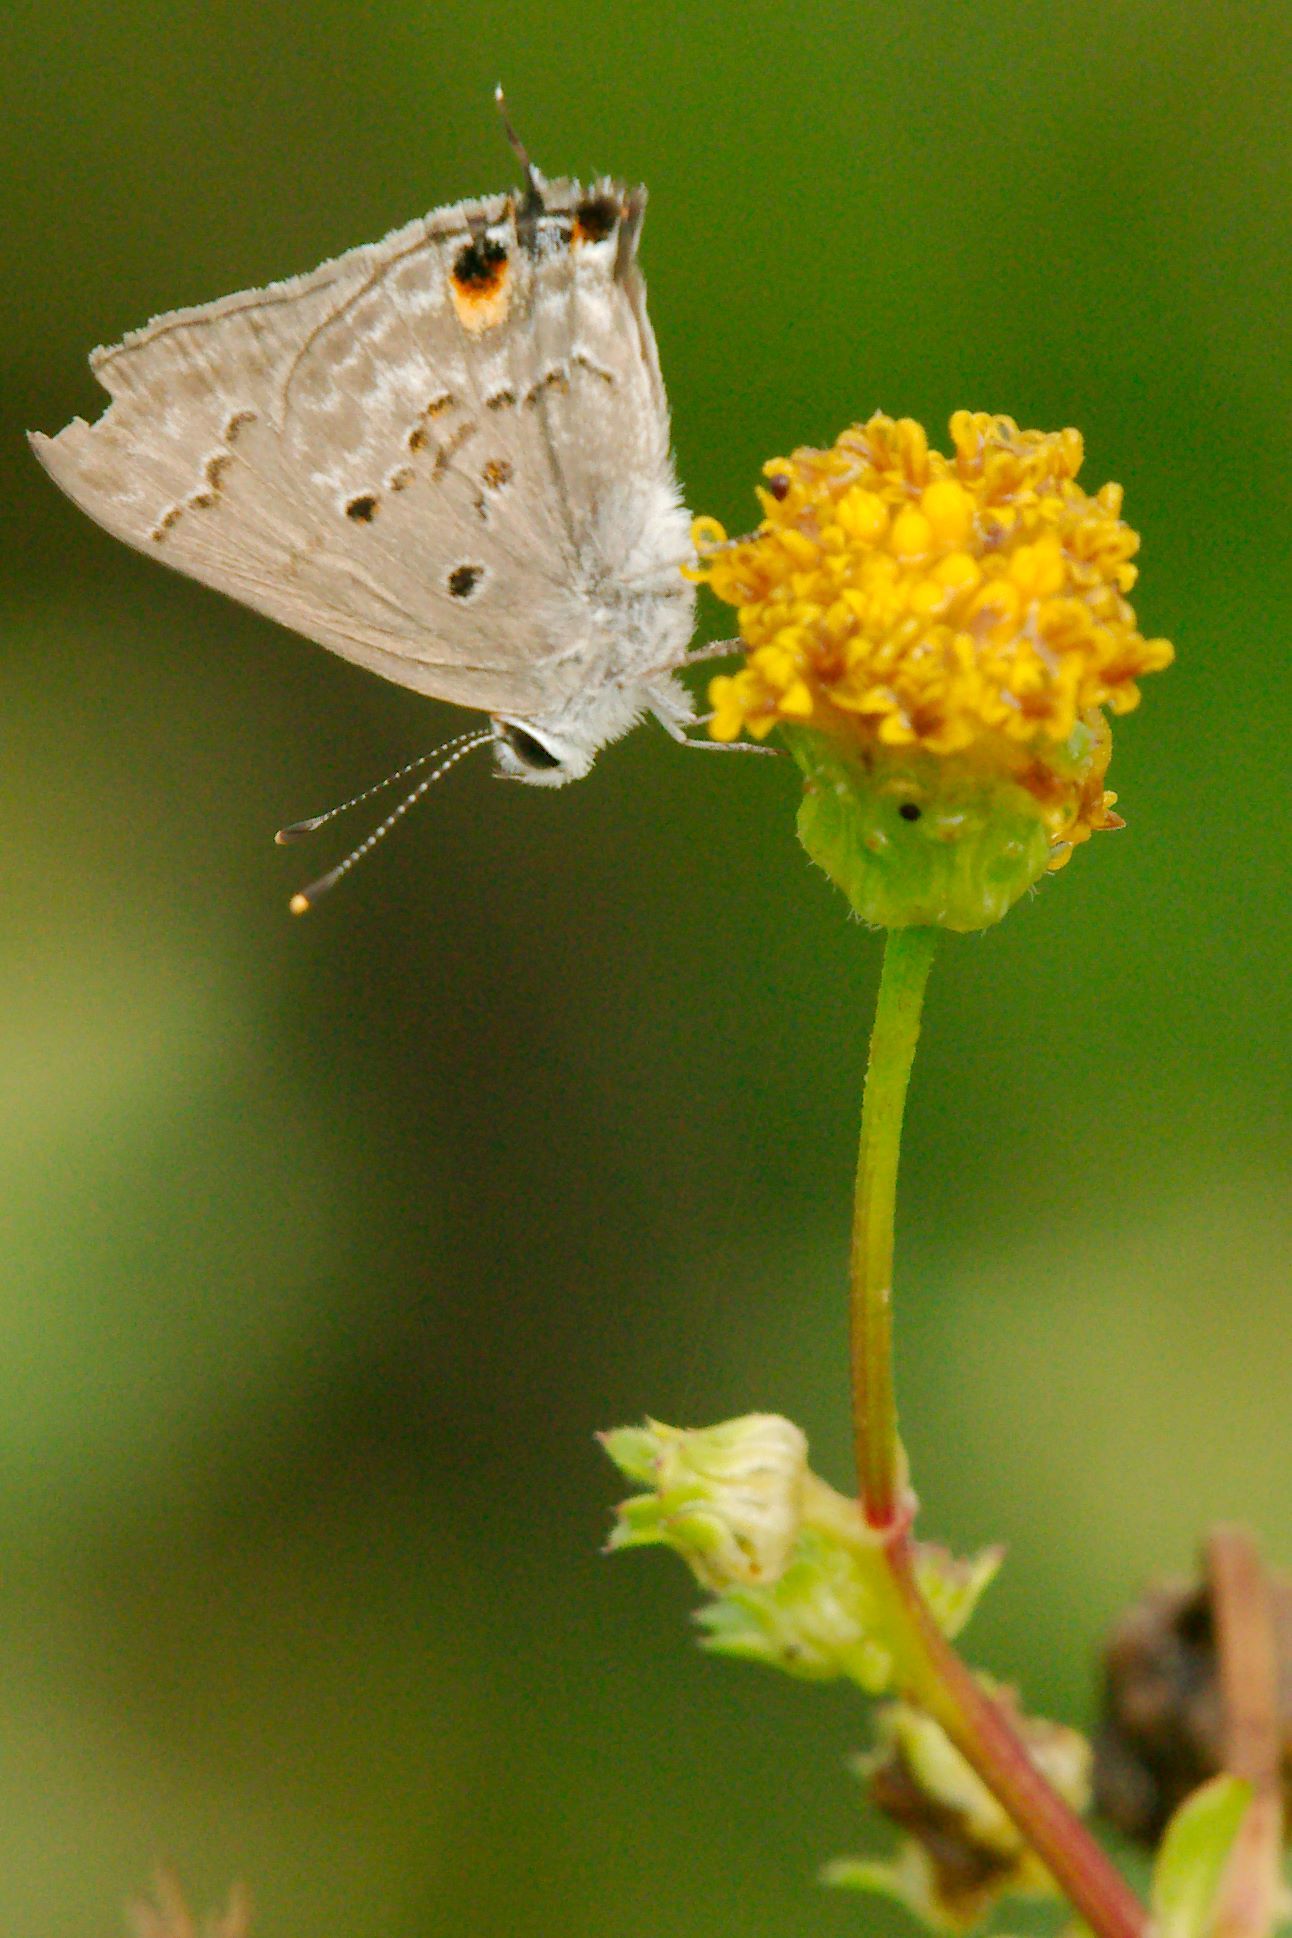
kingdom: Animalia
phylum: Arthropoda
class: Insecta
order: Lepidoptera
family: Lycaenidae
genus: Callicista
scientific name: Callicista columella
